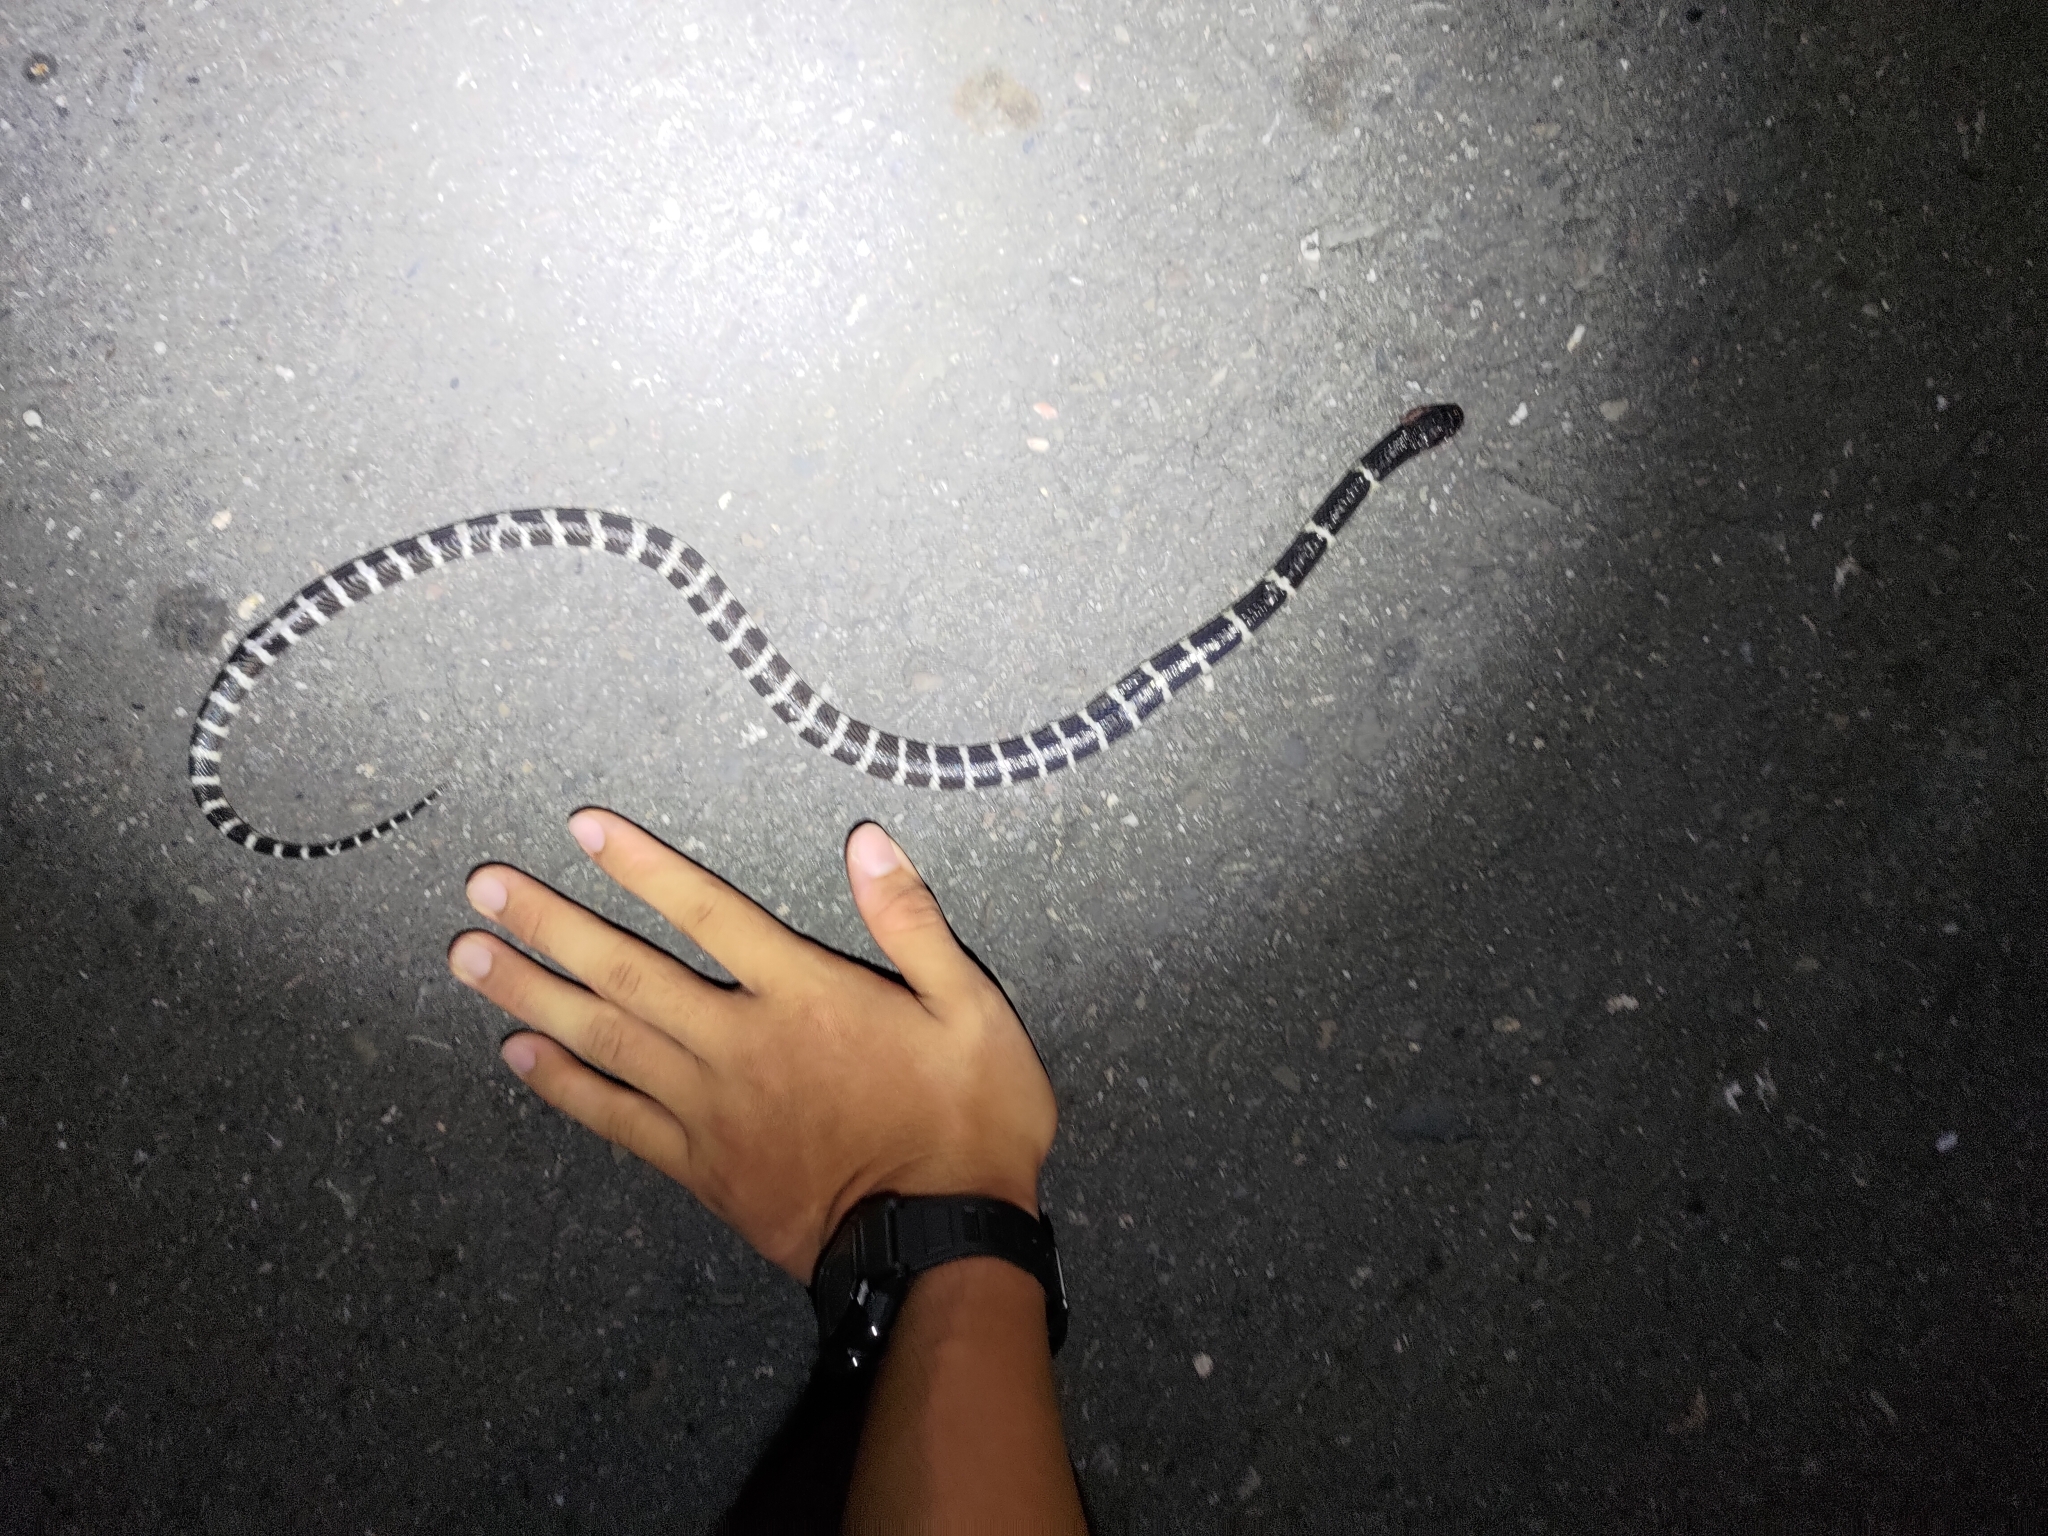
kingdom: Animalia
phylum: Chordata
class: Squamata
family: Elapidae
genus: Bungarus
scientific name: Bungarus multicinctus
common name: Many-banded krait
